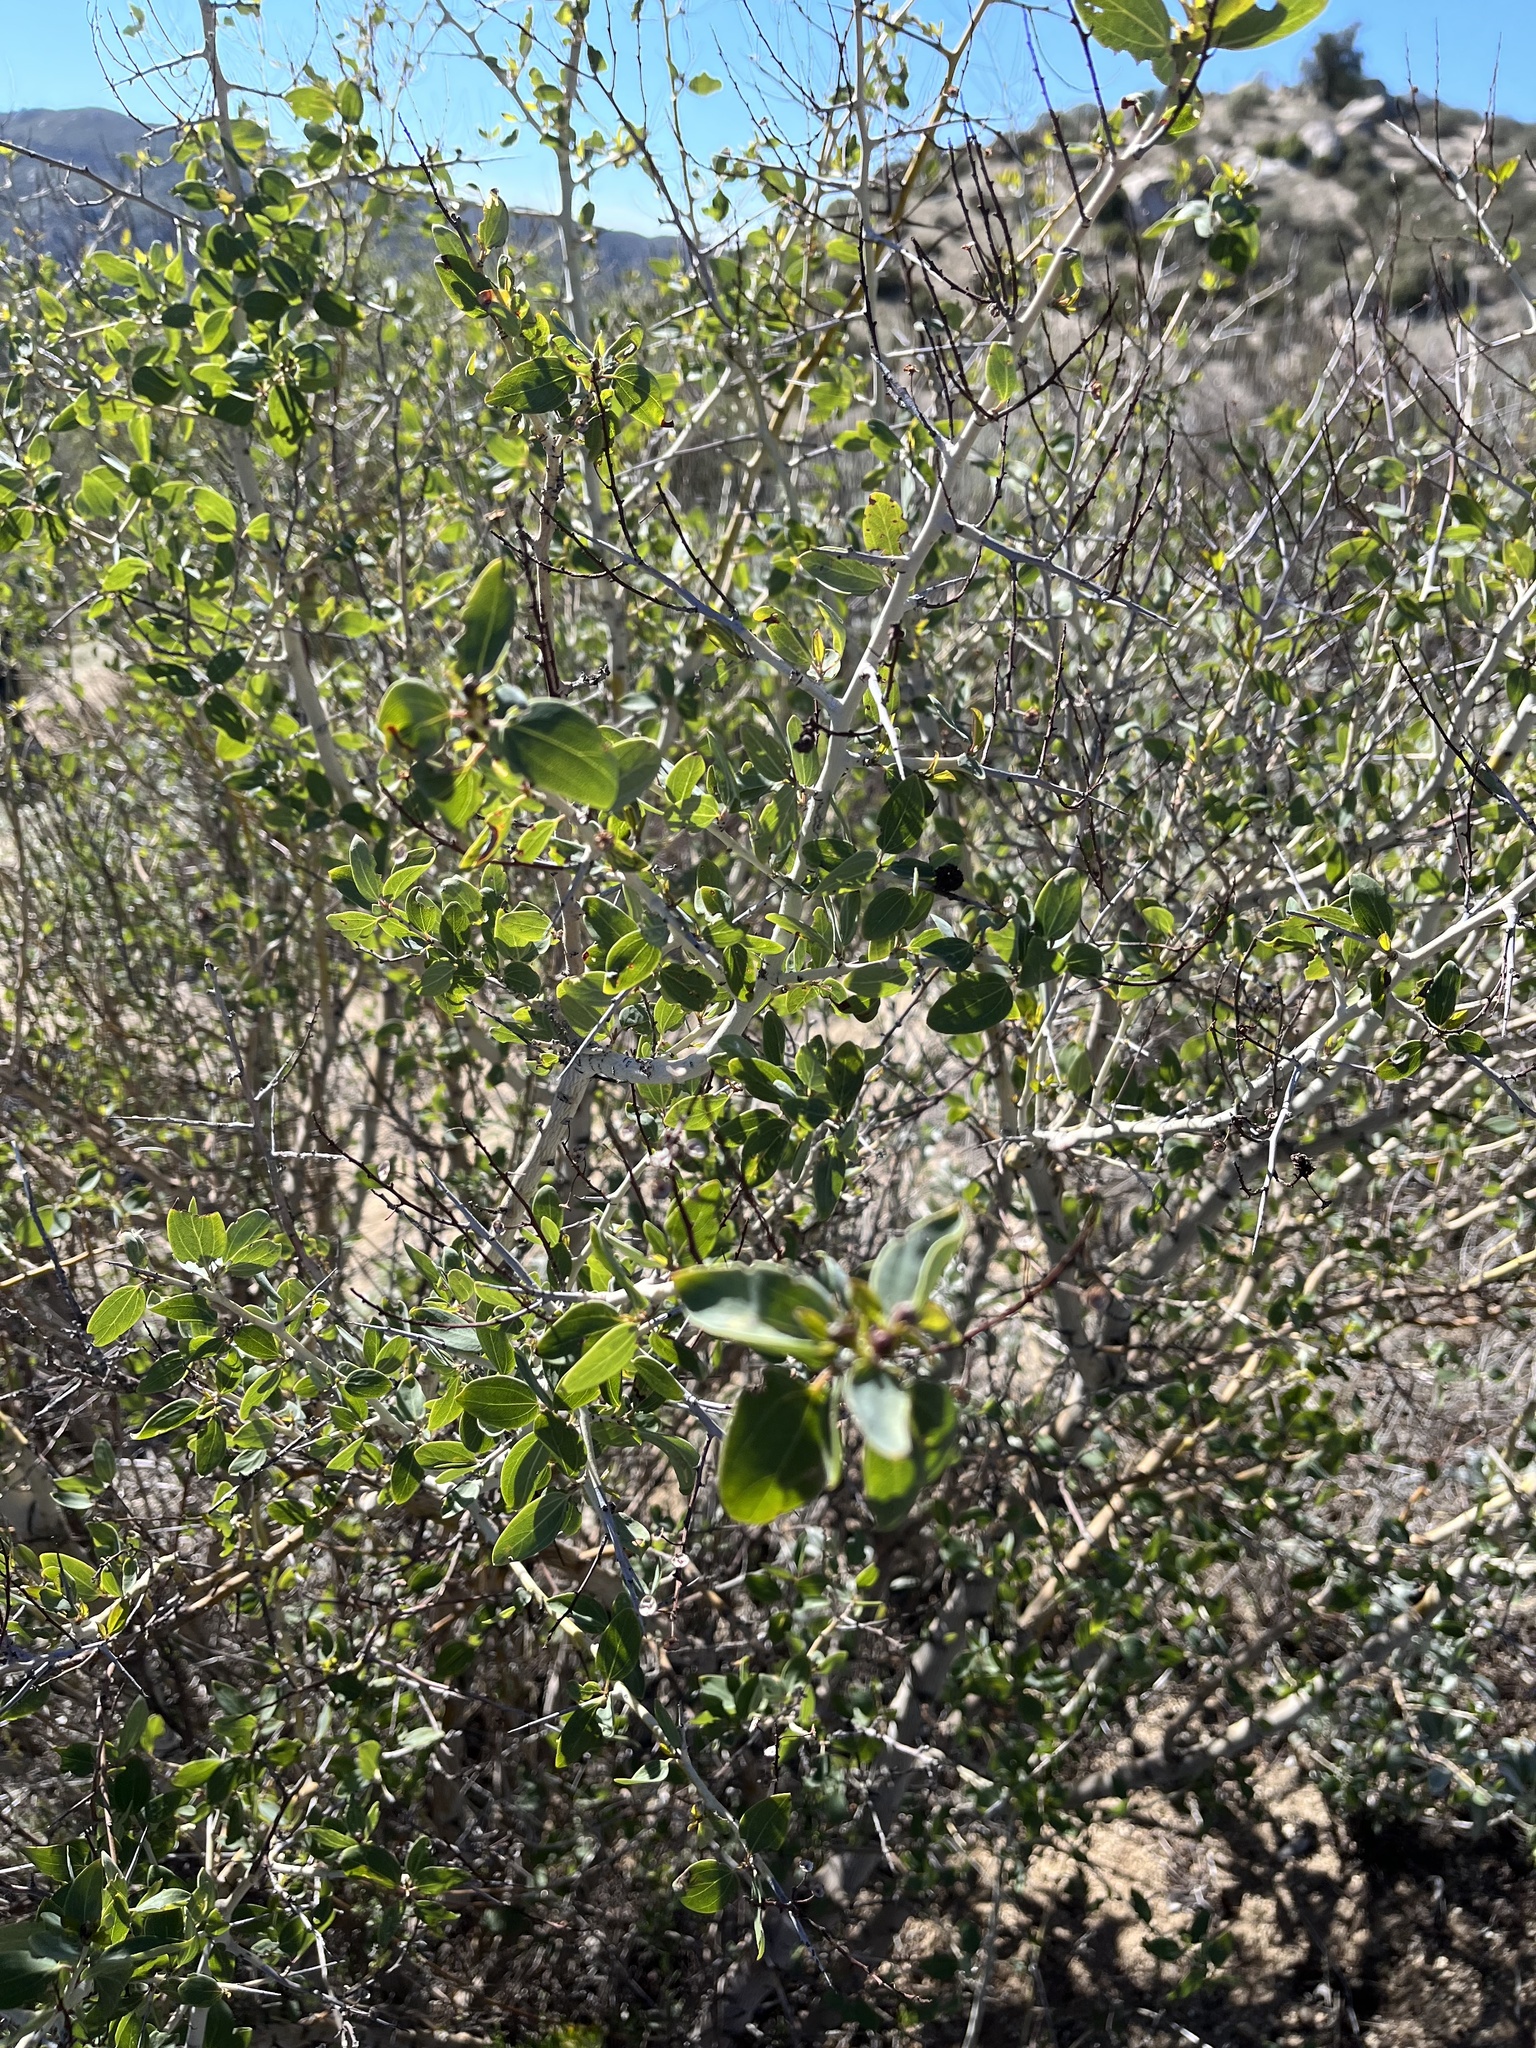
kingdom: Plantae
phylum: Tracheophyta
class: Magnoliopsida
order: Rosales
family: Rhamnaceae
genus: Ceanothus
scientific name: Ceanothus leucodermis
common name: Chaparral whitethorn
